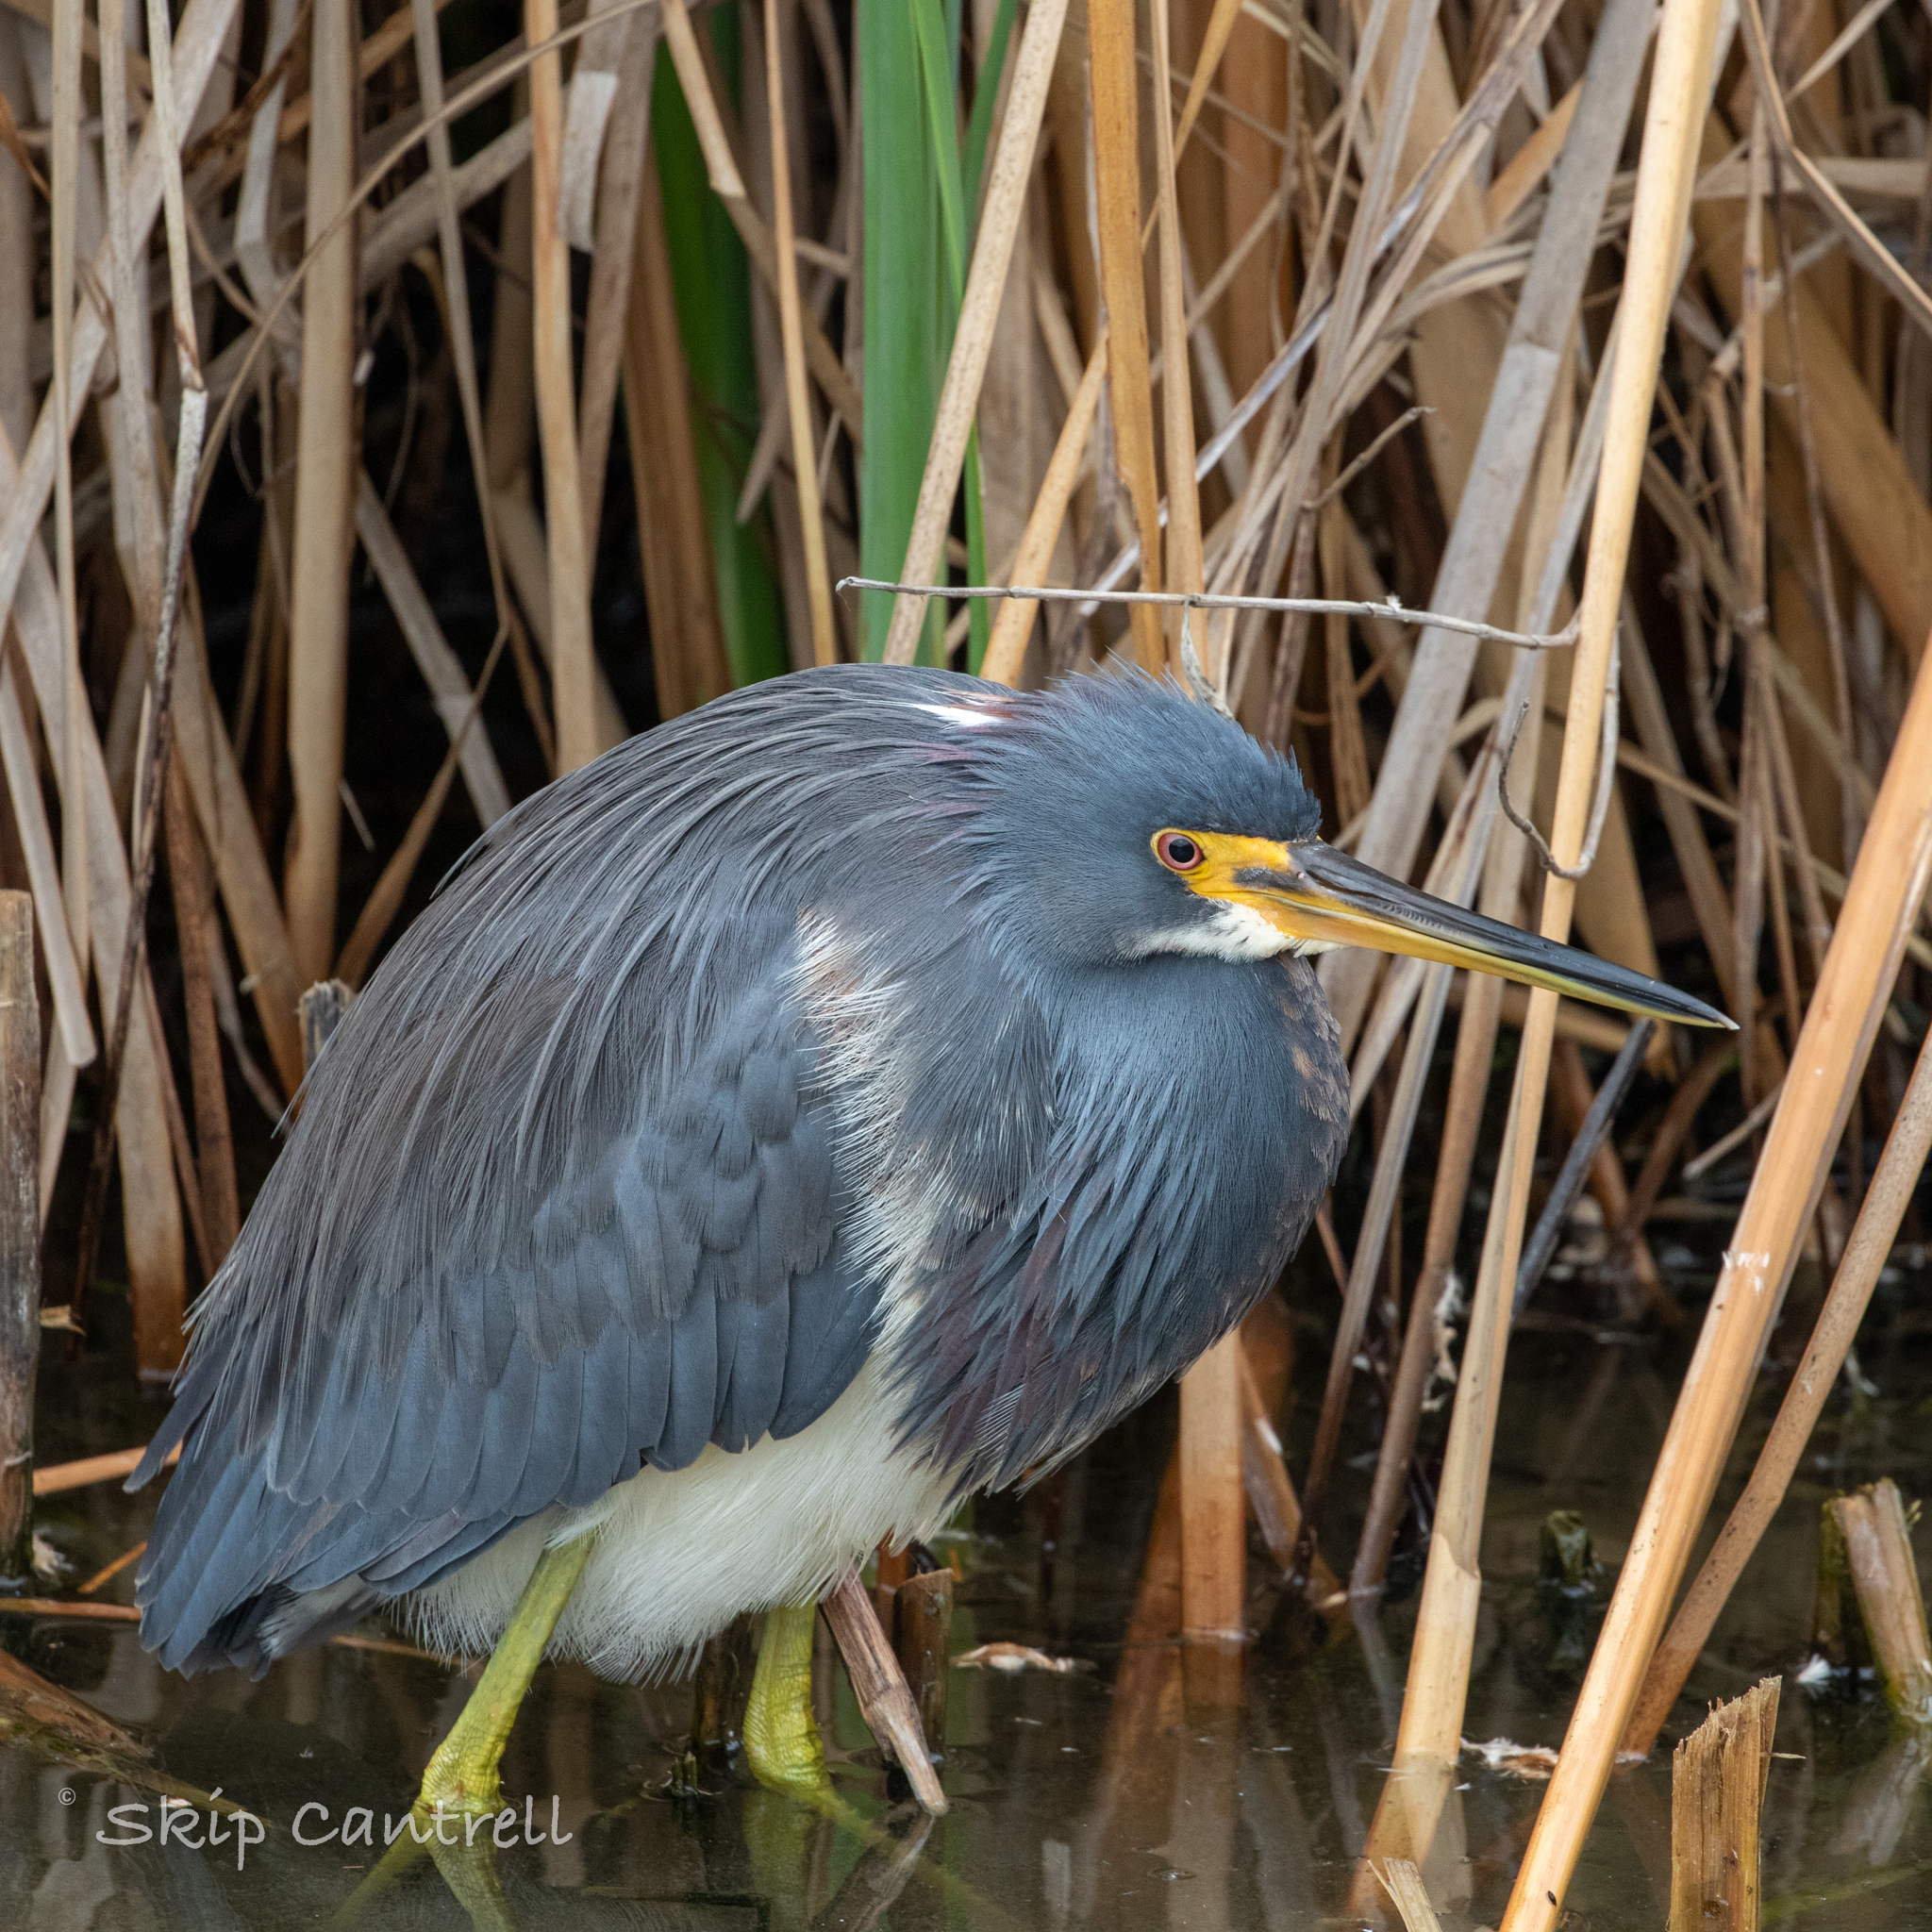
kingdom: Animalia
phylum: Chordata
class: Aves
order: Pelecaniformes
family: Ardeidae
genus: Egretta
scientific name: Egretta tricolor
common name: Tricolored heron
